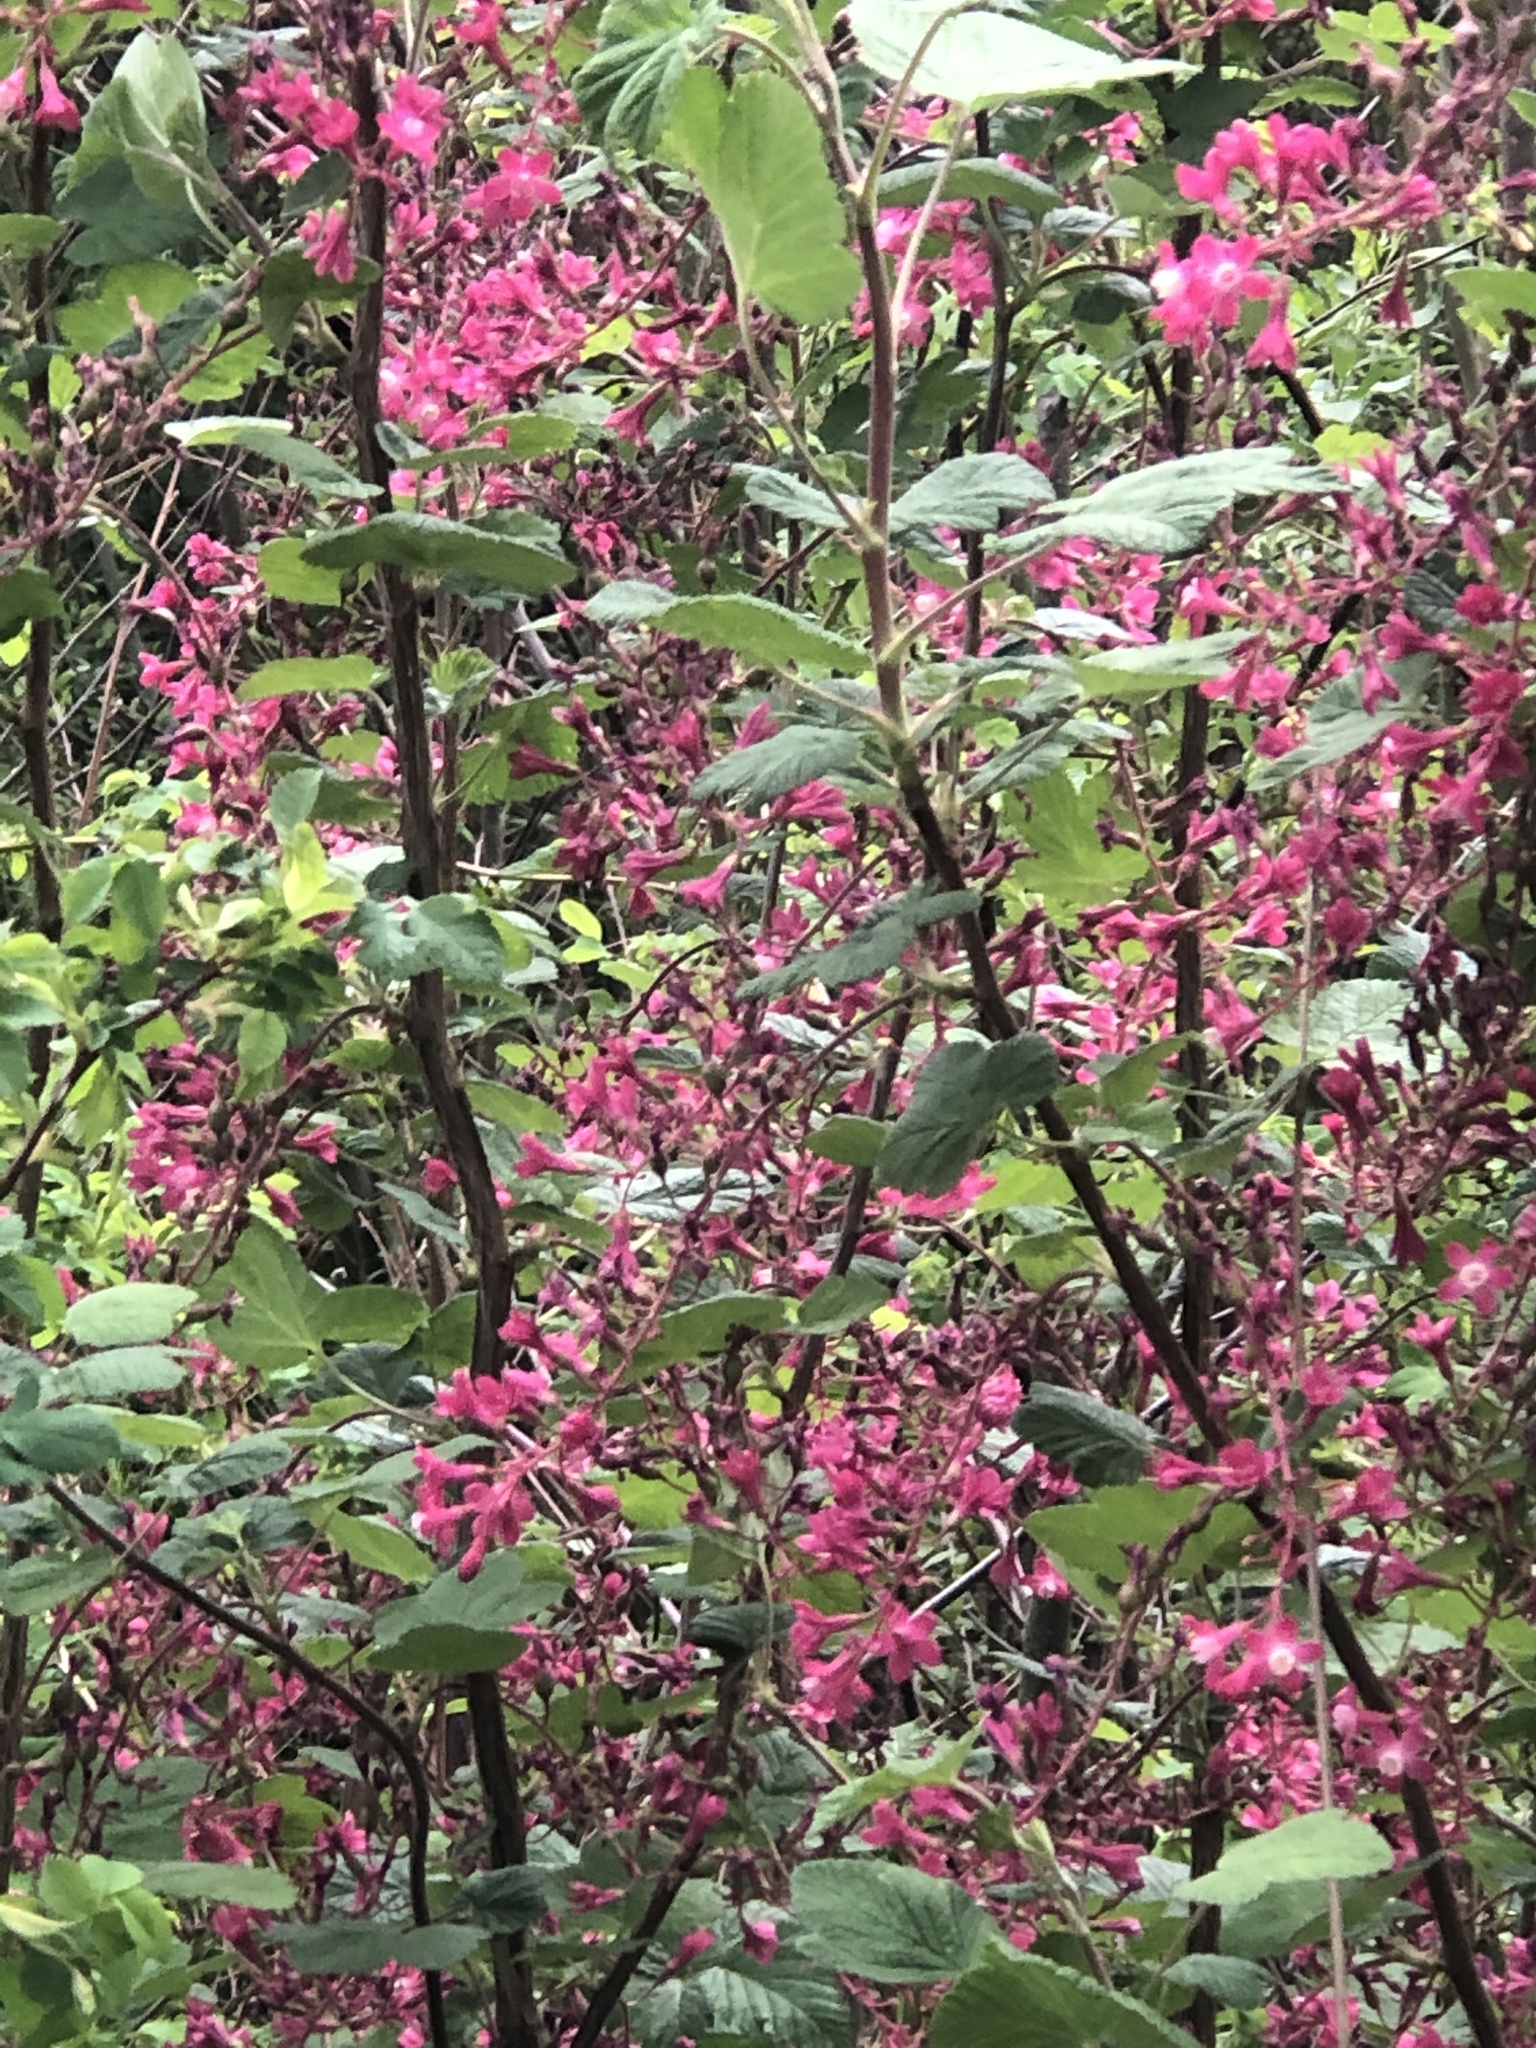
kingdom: Plantae
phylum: Tracheophyta
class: Magnoliopsida
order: Saxifragales
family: Grossulariaceae
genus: Ribes
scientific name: Ribes sanguineum
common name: Flowering currant
